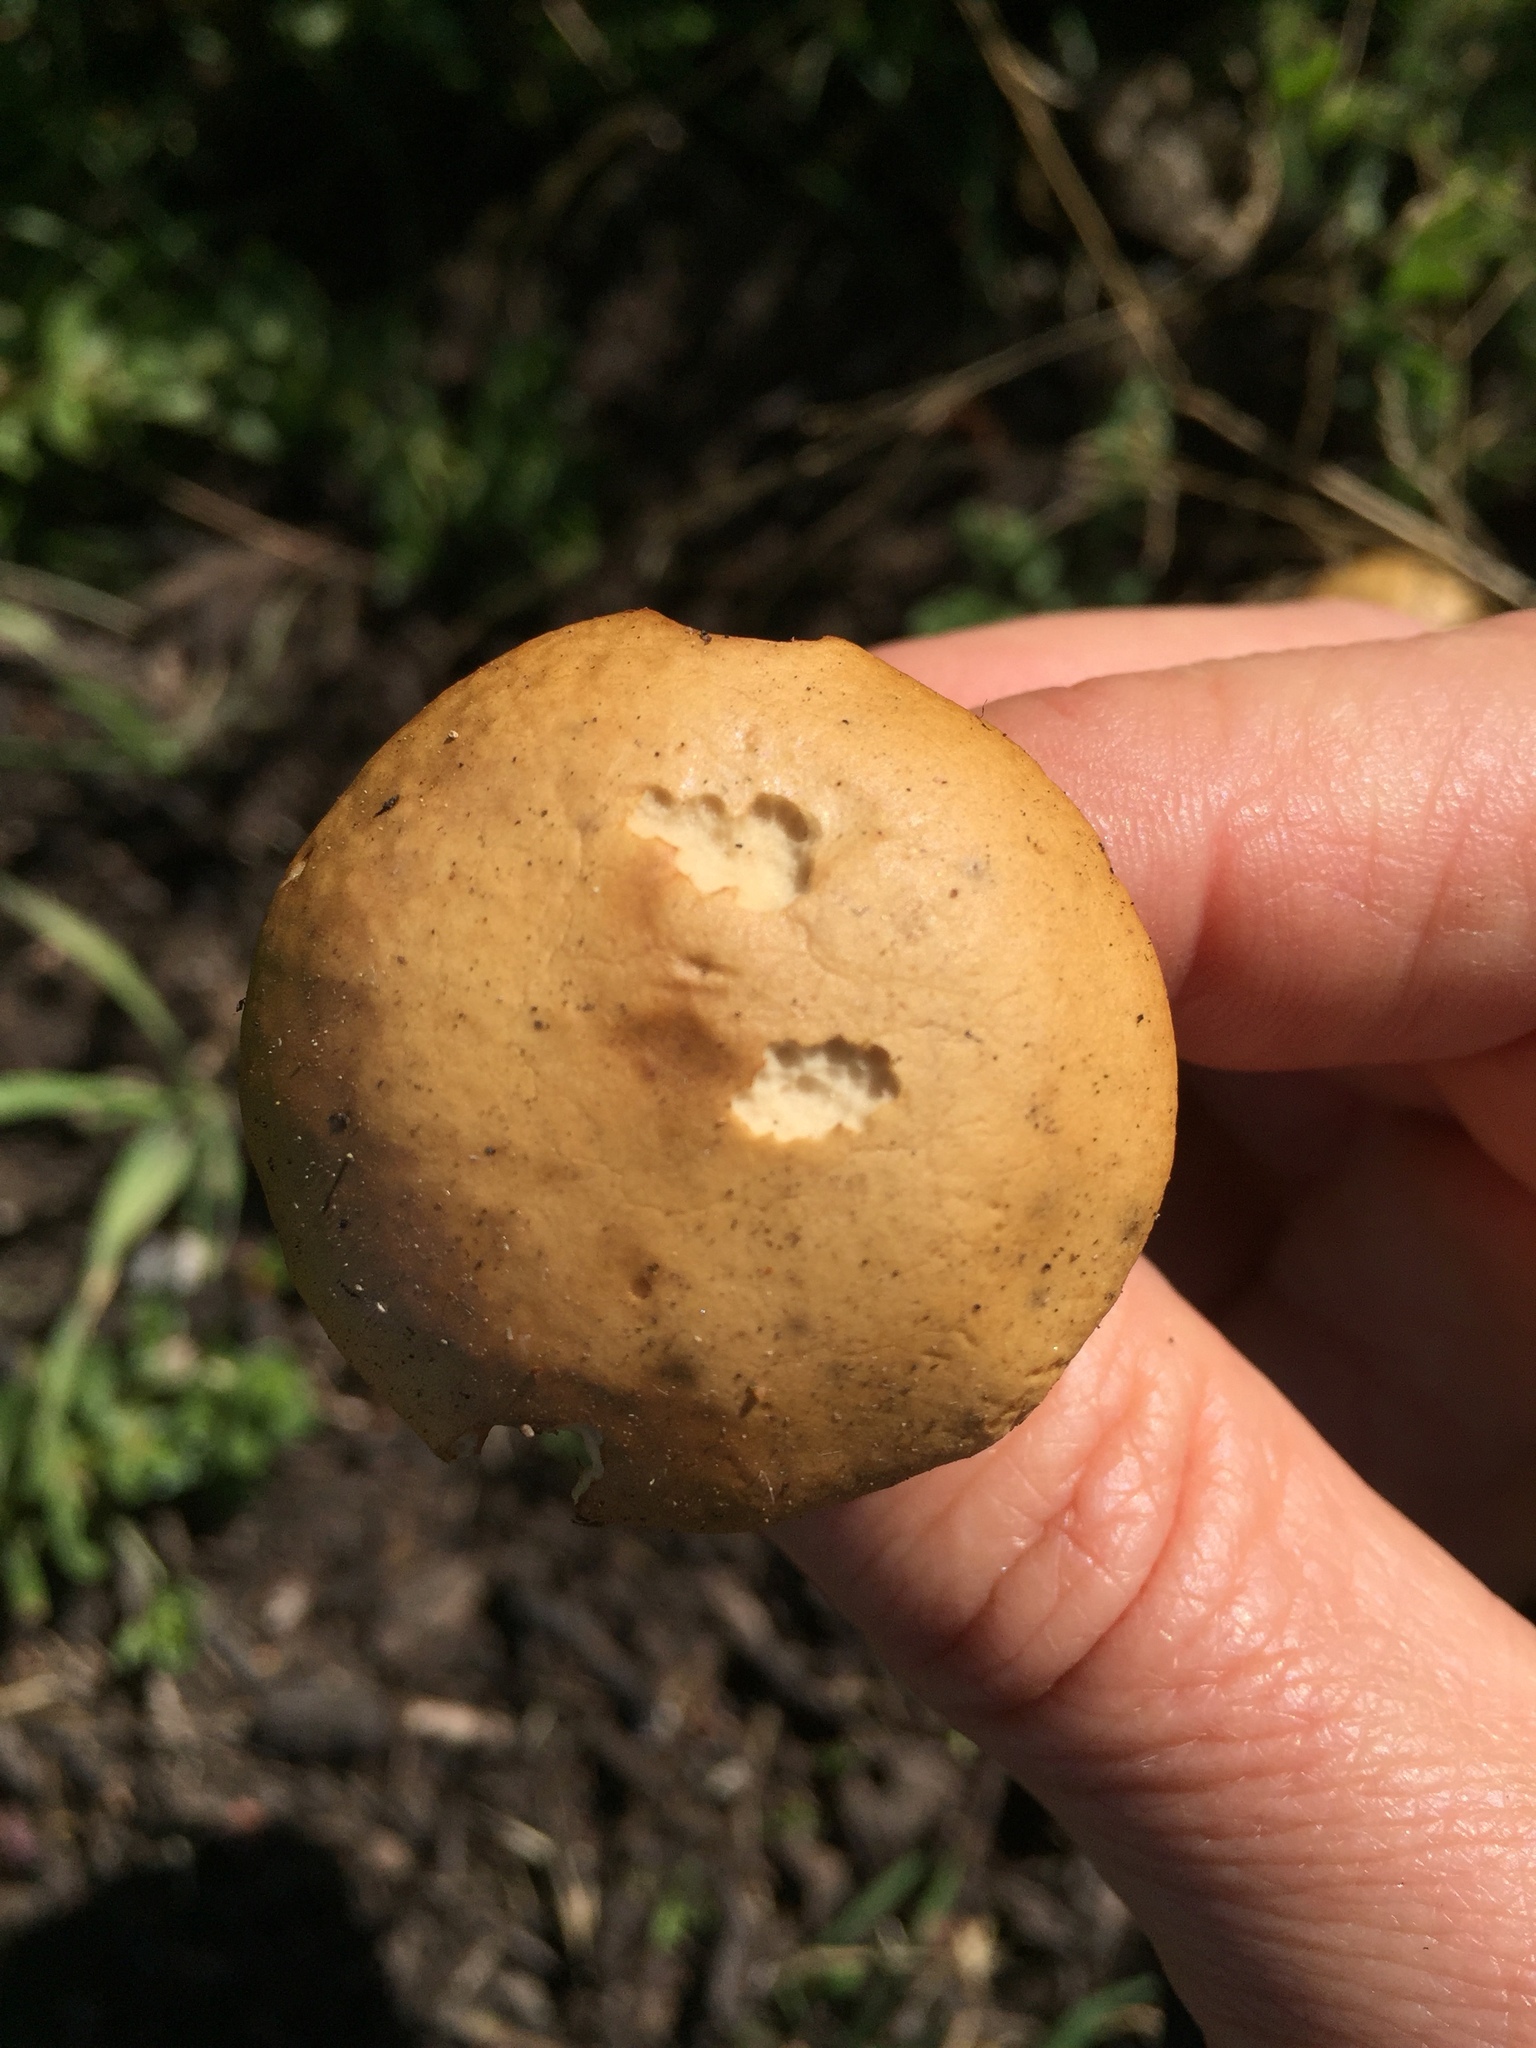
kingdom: Fungi
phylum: Basidiomycota
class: Agaricomycetes
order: Agaricales
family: Strophariaceae
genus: Agrocybe
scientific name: Agrocybe pediades
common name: Common fieldcap
